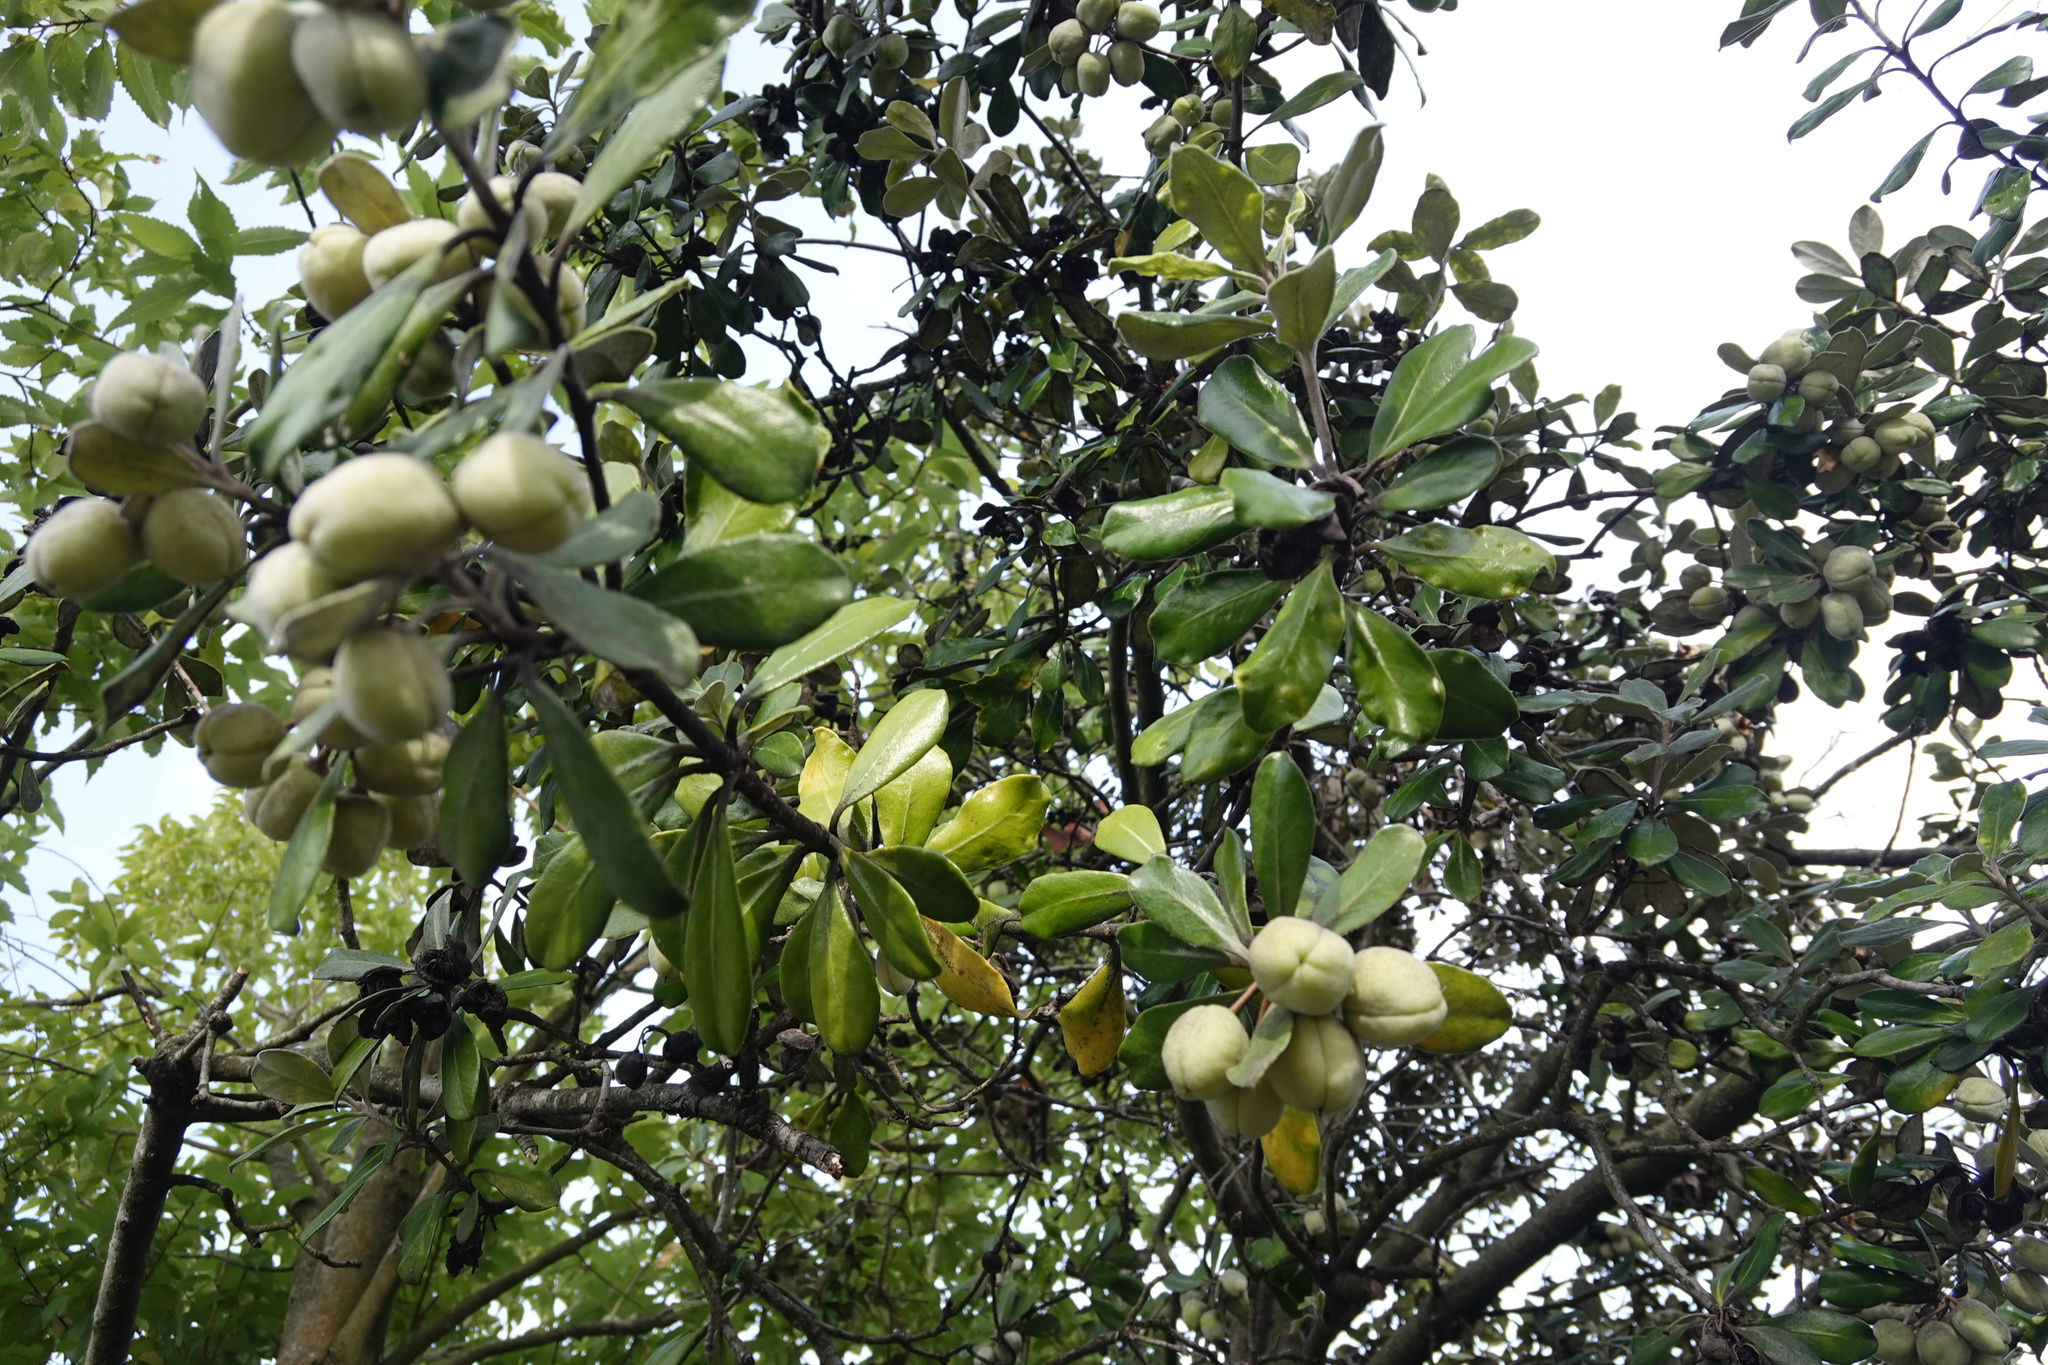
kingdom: Plantae
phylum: Tracheophyta
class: Magnoliopsida
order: Apiales
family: Pittosporaceae
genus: Pittosporum
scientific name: Pittosporum crassifolium
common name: Karo
